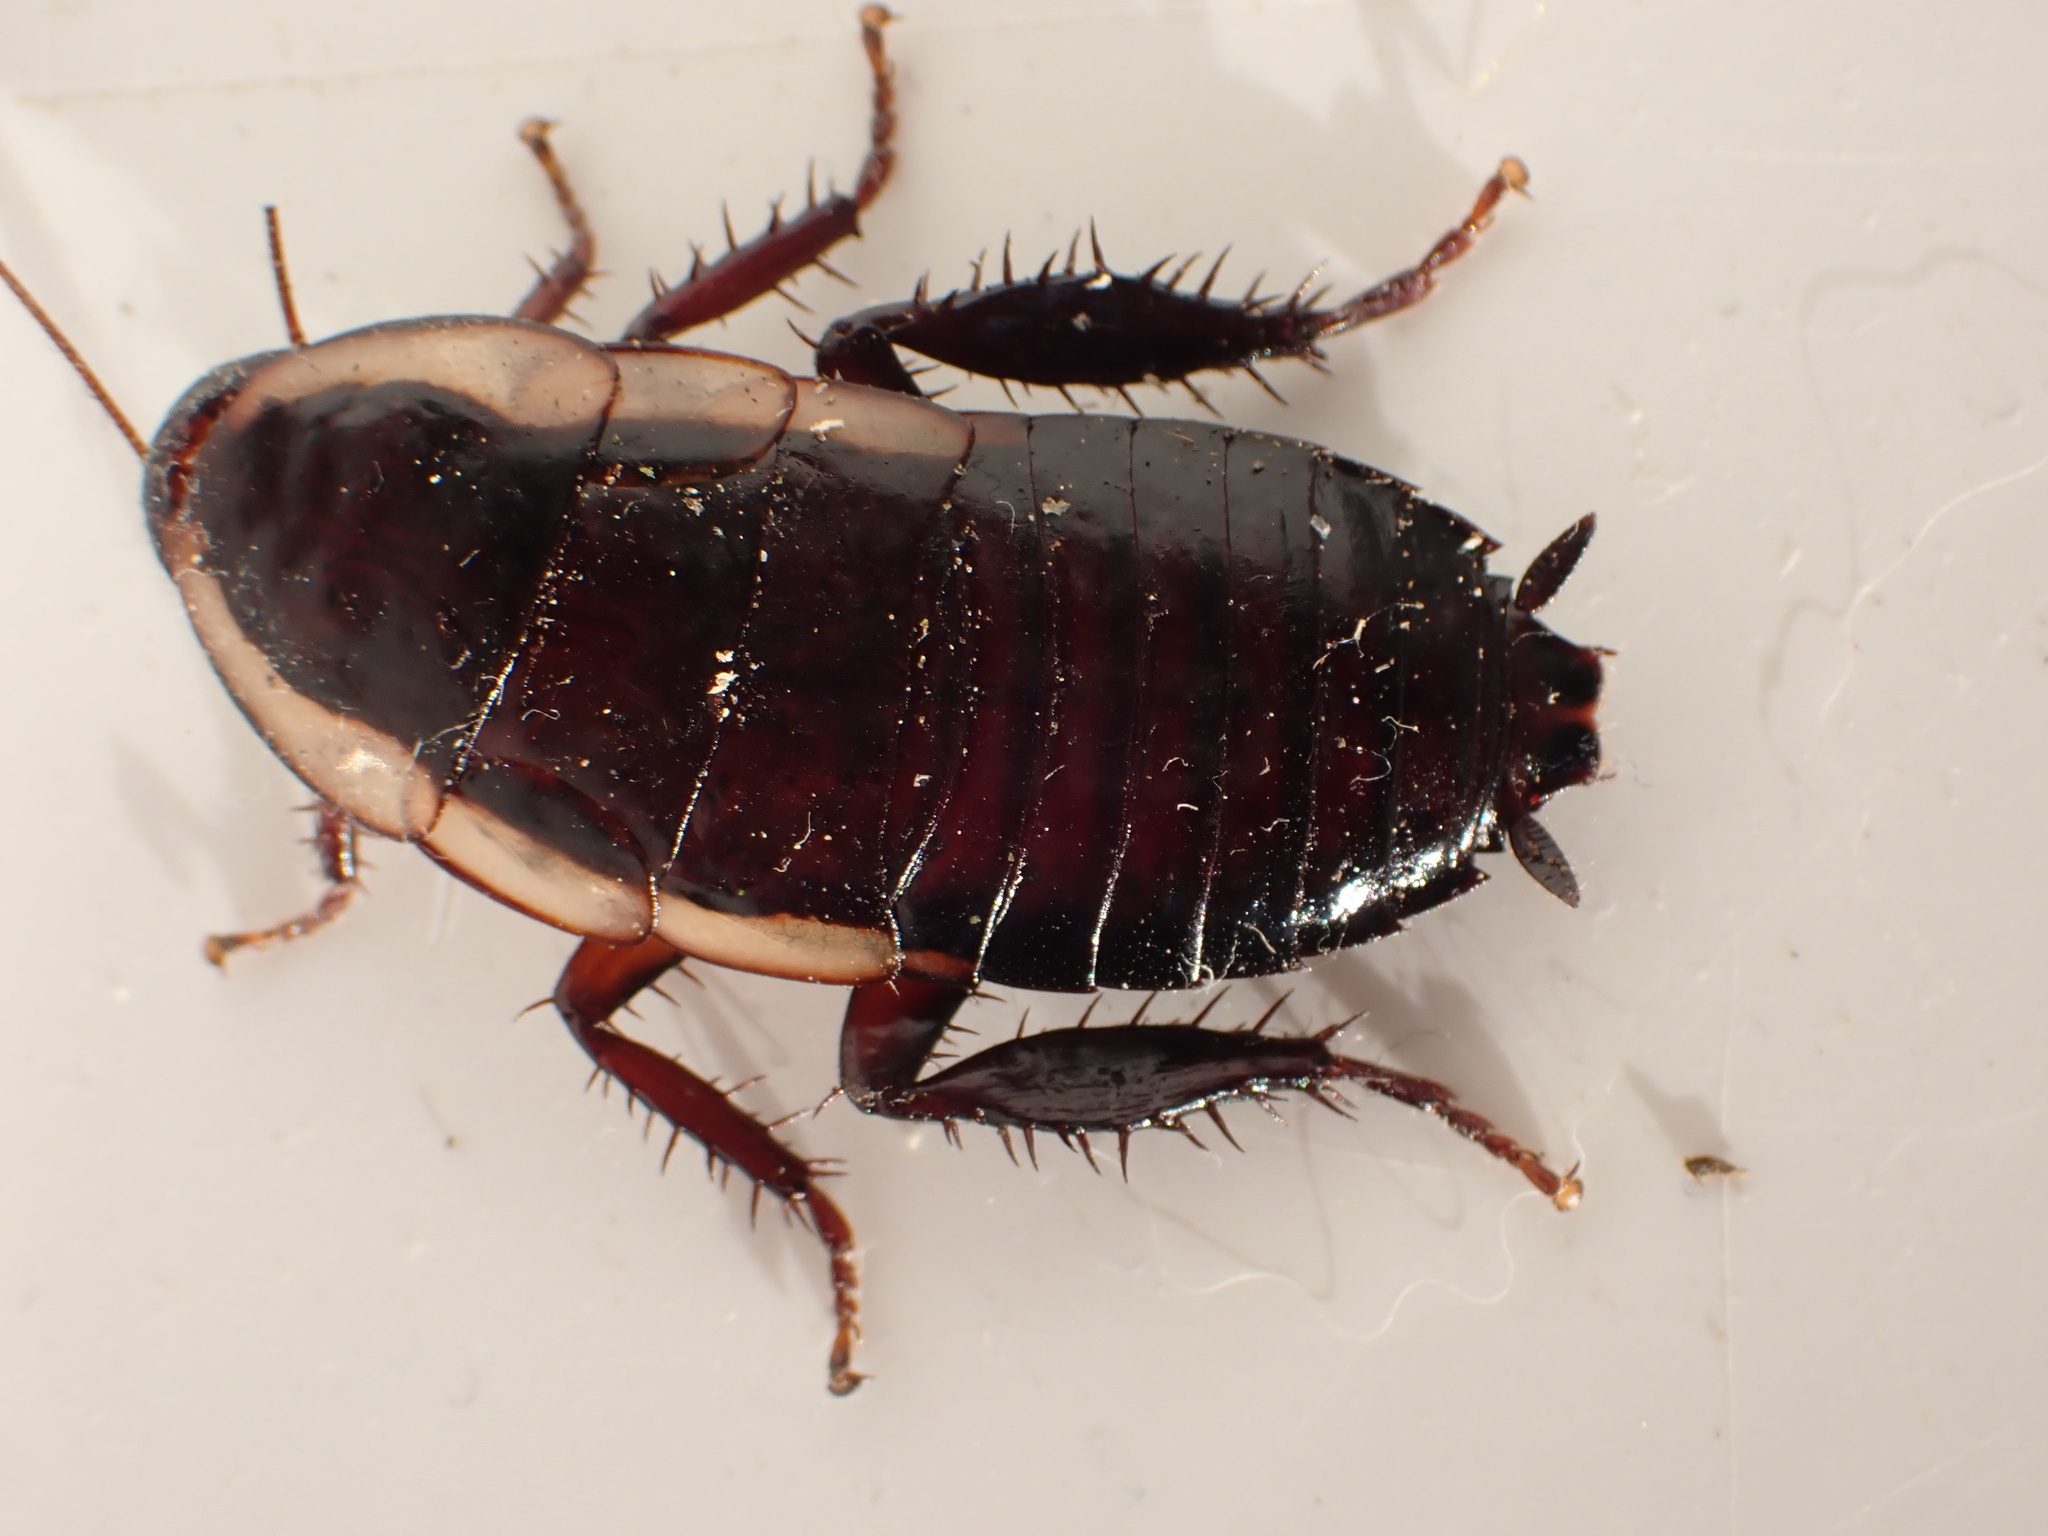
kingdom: Animalia
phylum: Arthropoda
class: Insecta
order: Blattodea
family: Blattidae
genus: Drymaplaneta
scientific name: Drymaplaneta semivitta
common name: Gisborne cockroach
